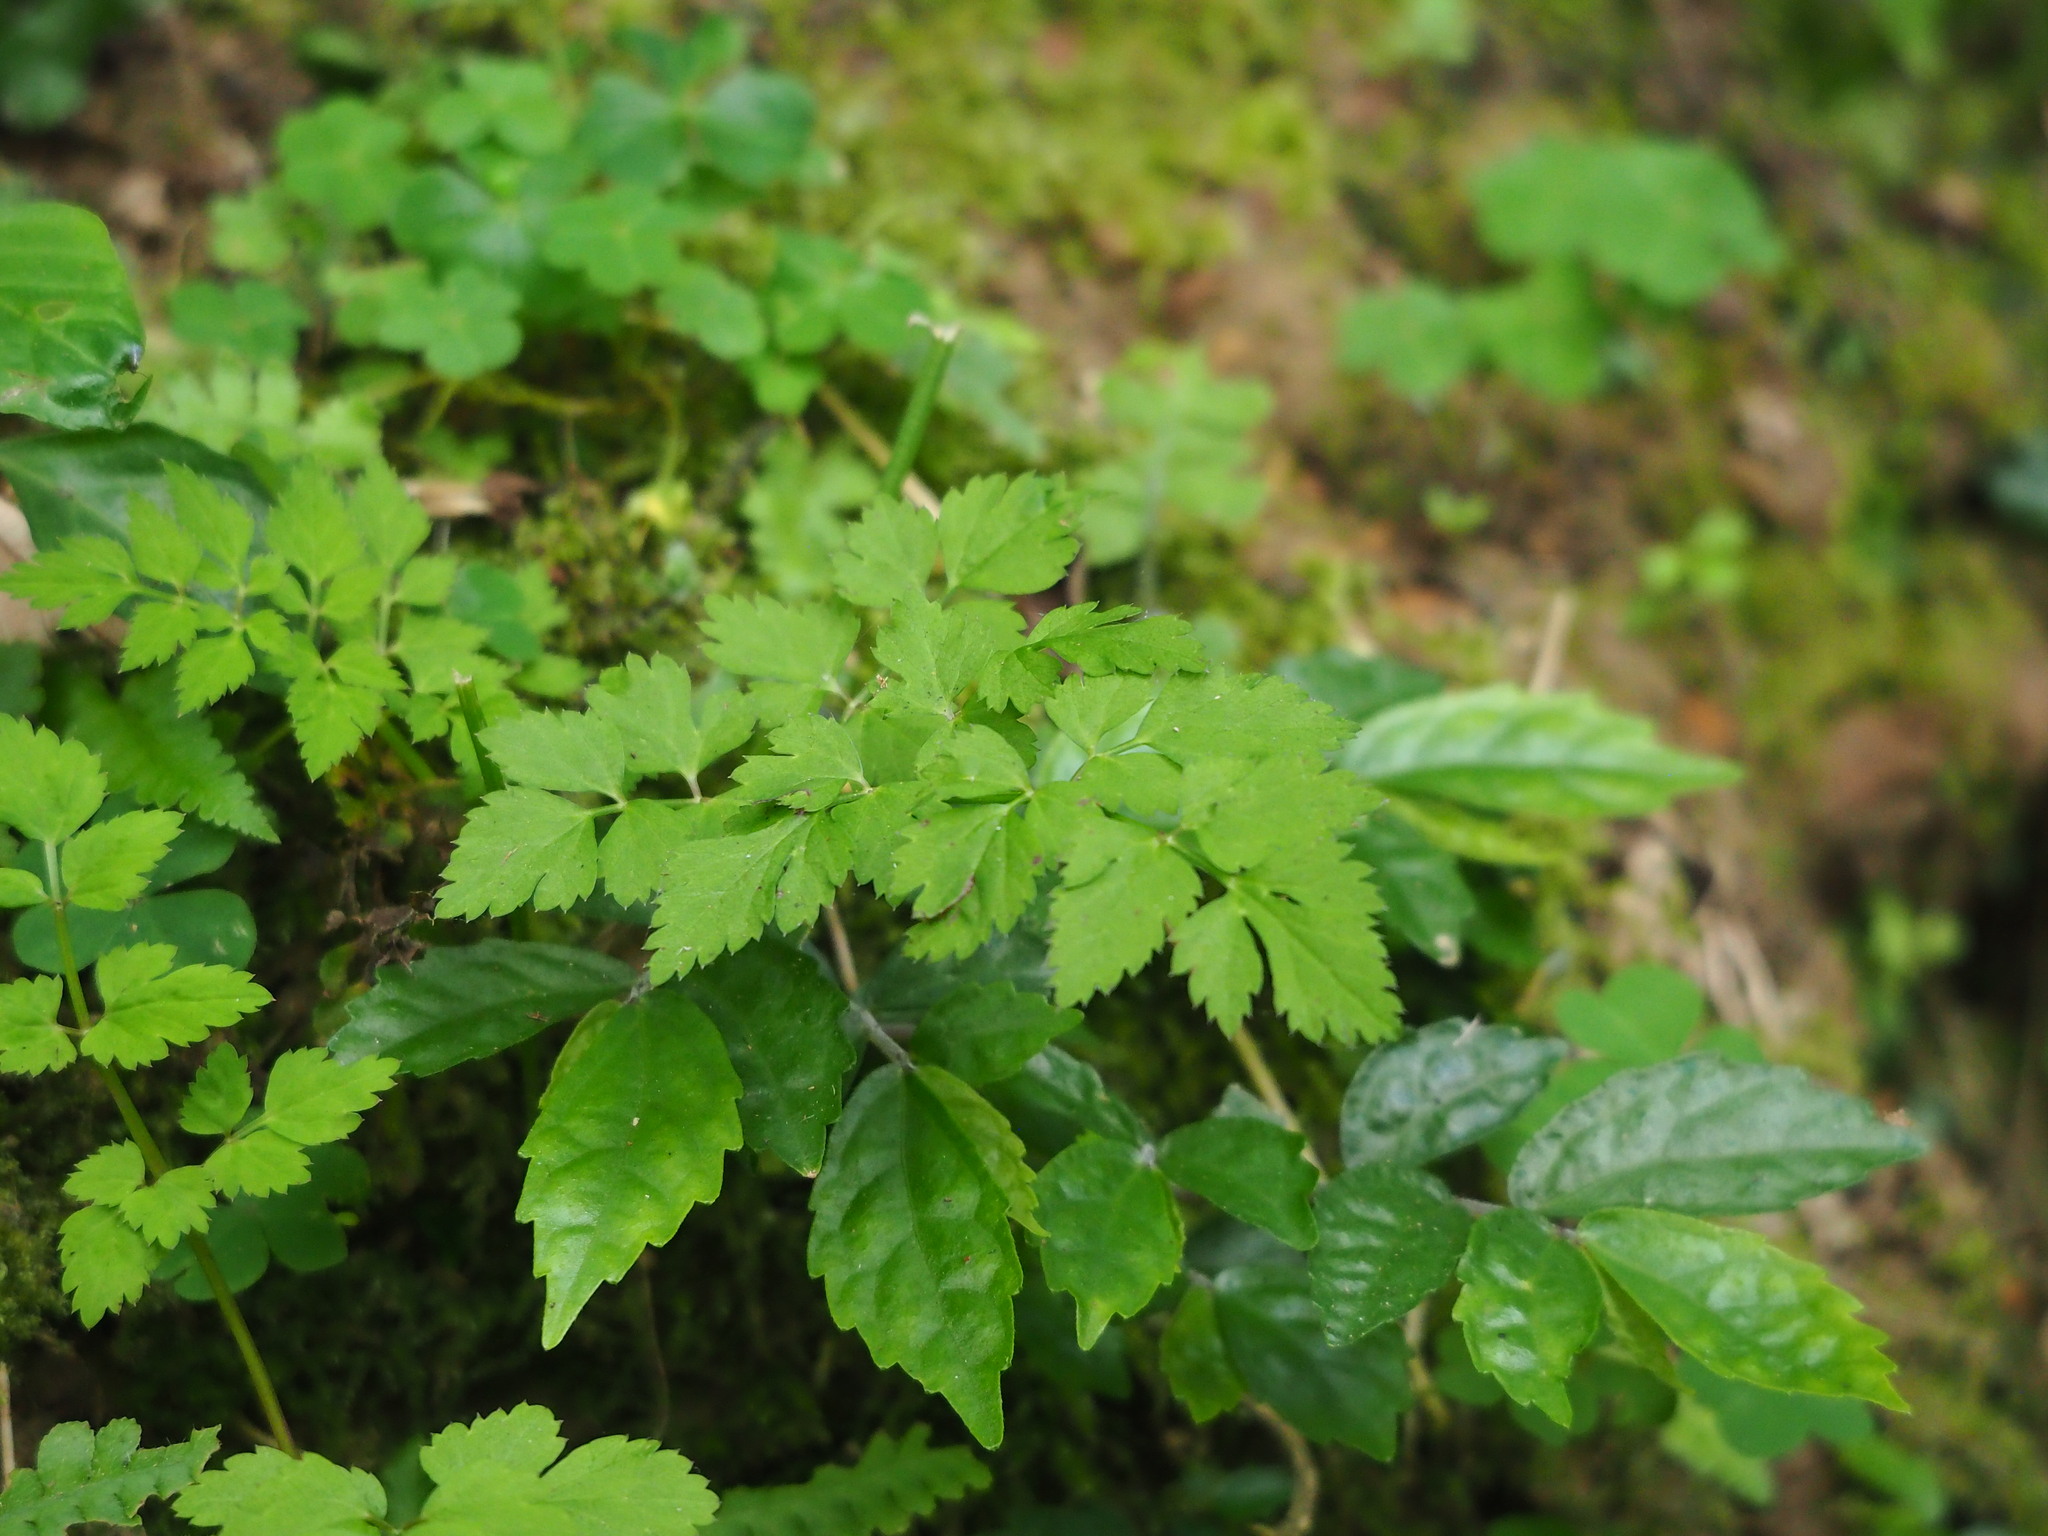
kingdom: Plantae
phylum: Tracheophyta
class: Magnoliopsida
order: Apiales
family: Apiaceae
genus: Oenanthe
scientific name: Oenanthe javanica
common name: Java water-dropwort
